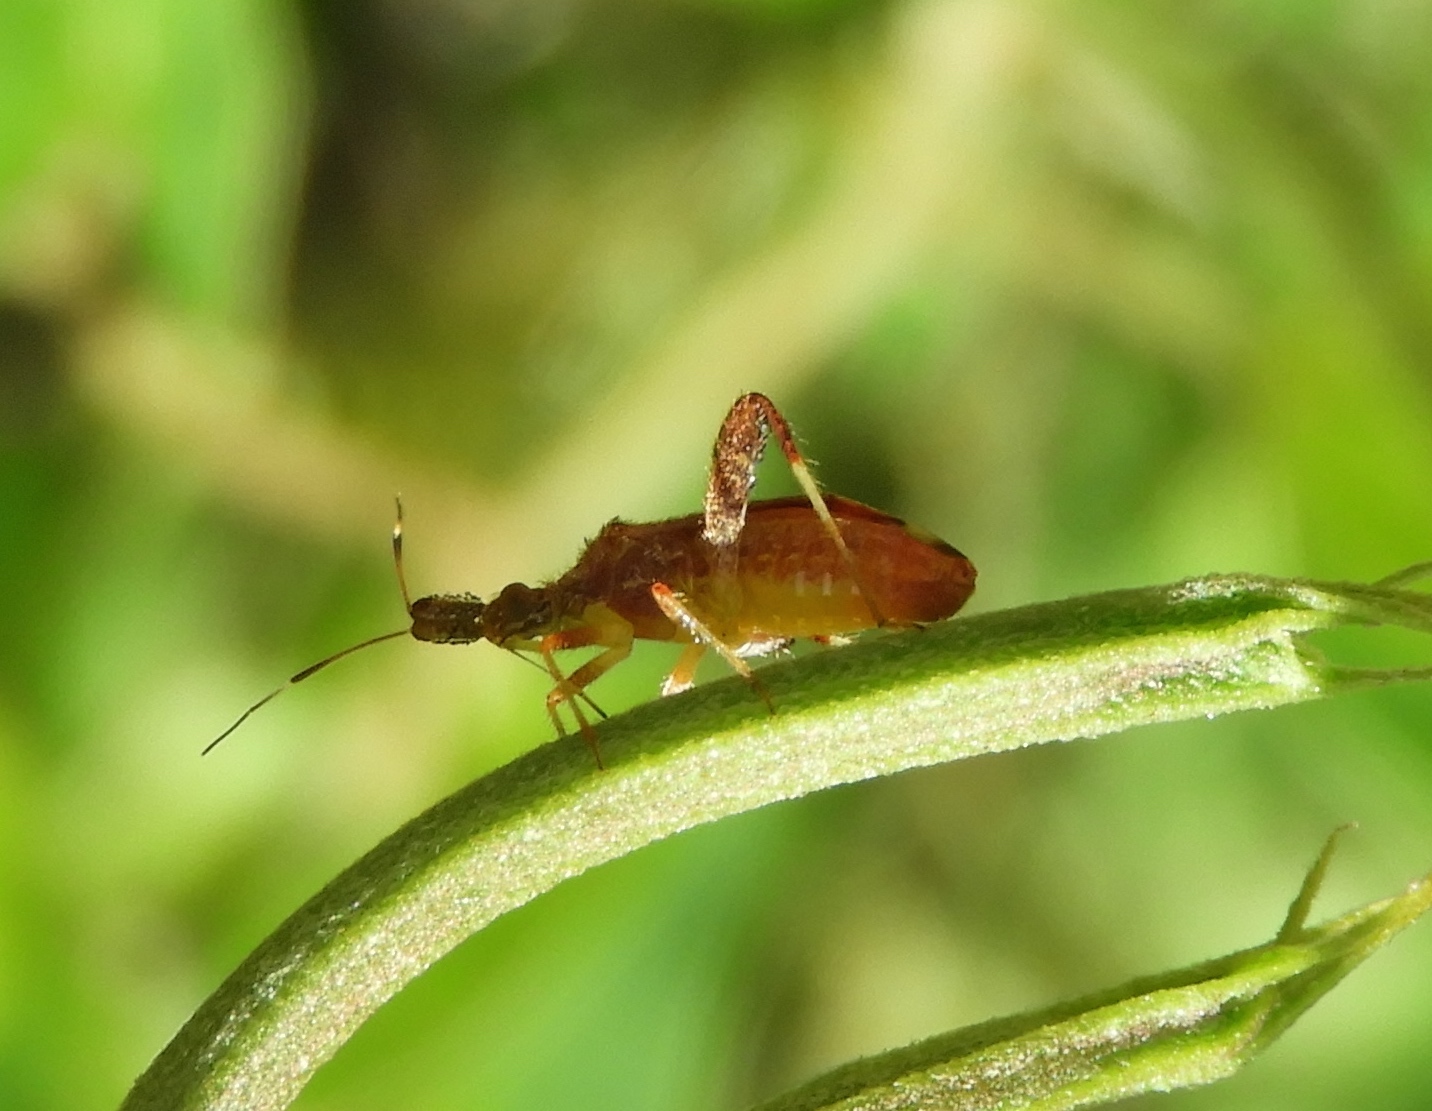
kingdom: Animalia
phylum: Arthropoda
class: Insecta
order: Hemiptera
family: Miridae
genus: Neurocolpus
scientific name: Neurocolpus
